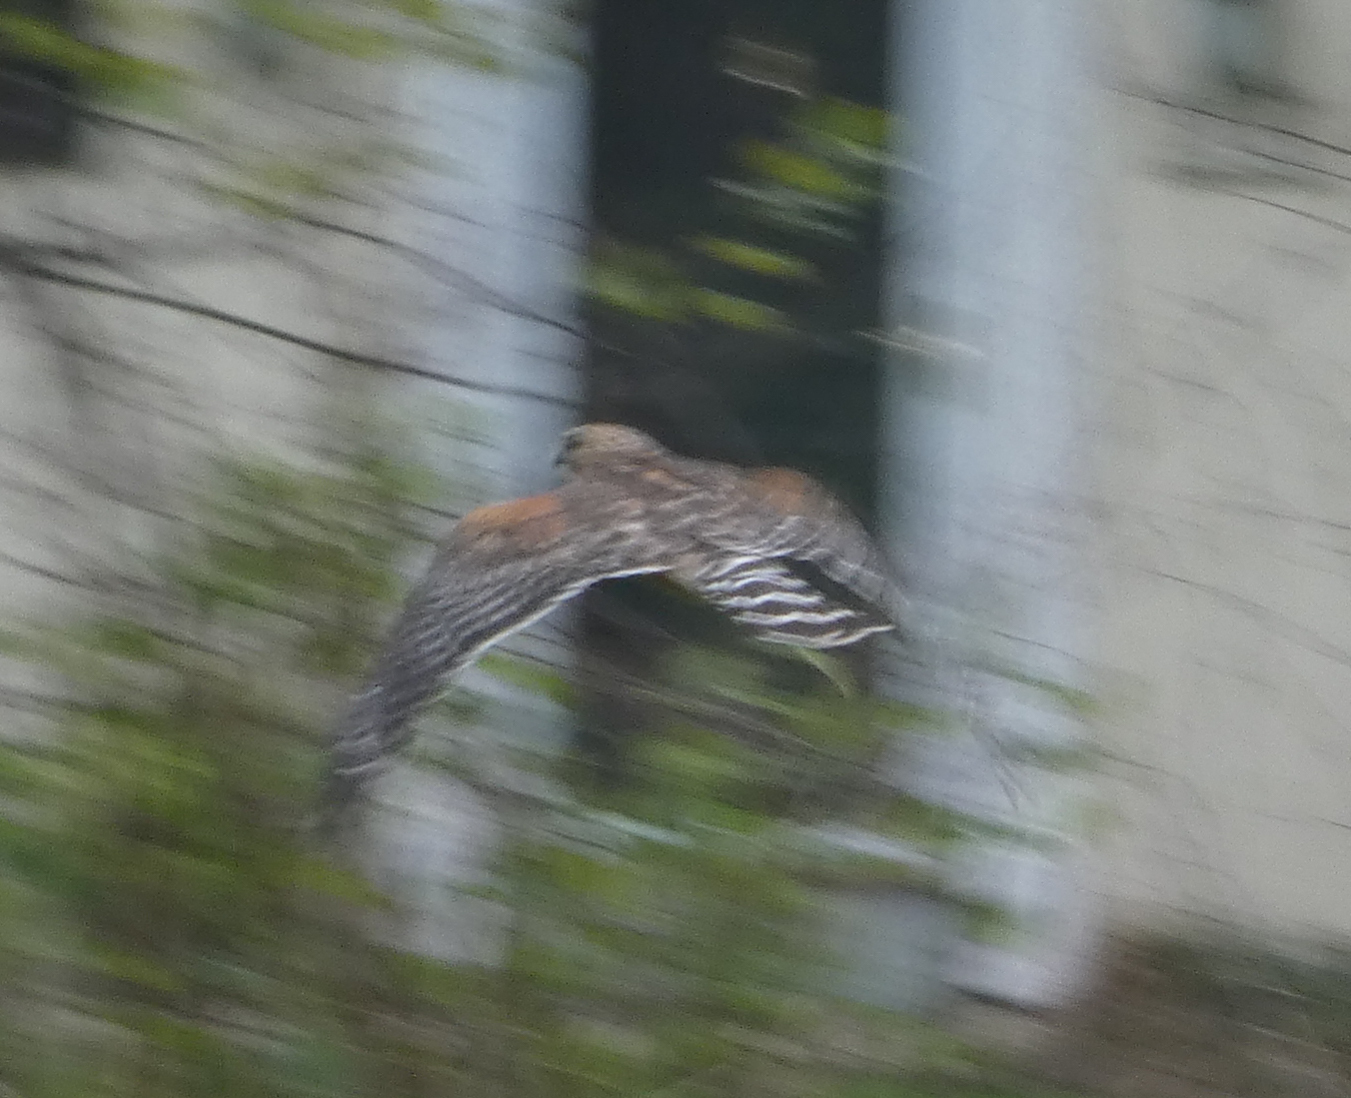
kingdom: Animalia
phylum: Chordata
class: Aves
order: Accipitriformes
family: Accipitridae
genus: Buteo
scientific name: Buteo lineatus
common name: Red-shouldered hawk
